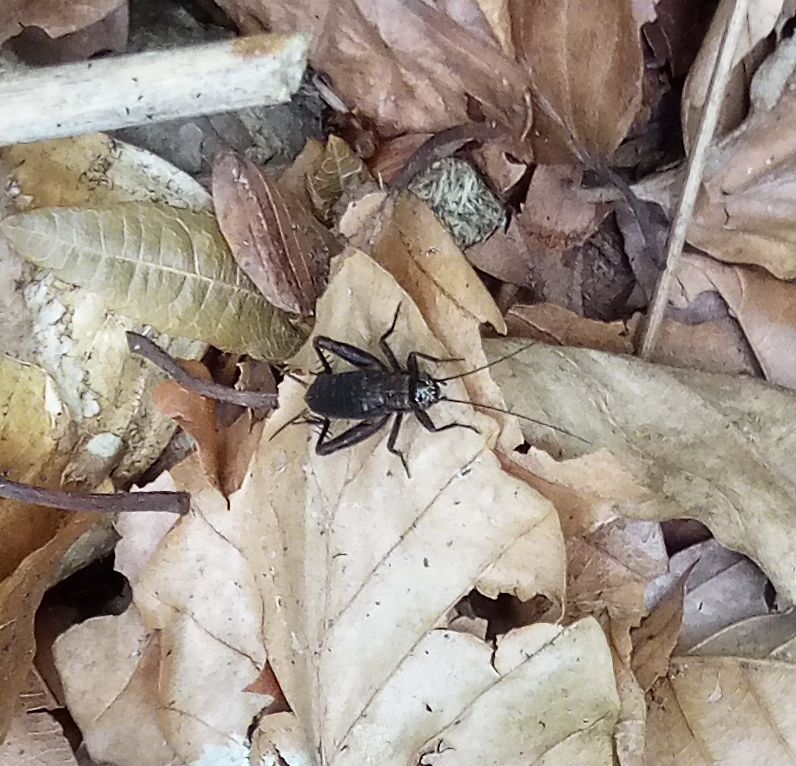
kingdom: Animalia
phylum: Arthropoda
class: Insecta
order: Orthoptera
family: Trigonidiidae
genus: Nemobius
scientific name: Nemobius sylvestris
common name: Wood-cricket
